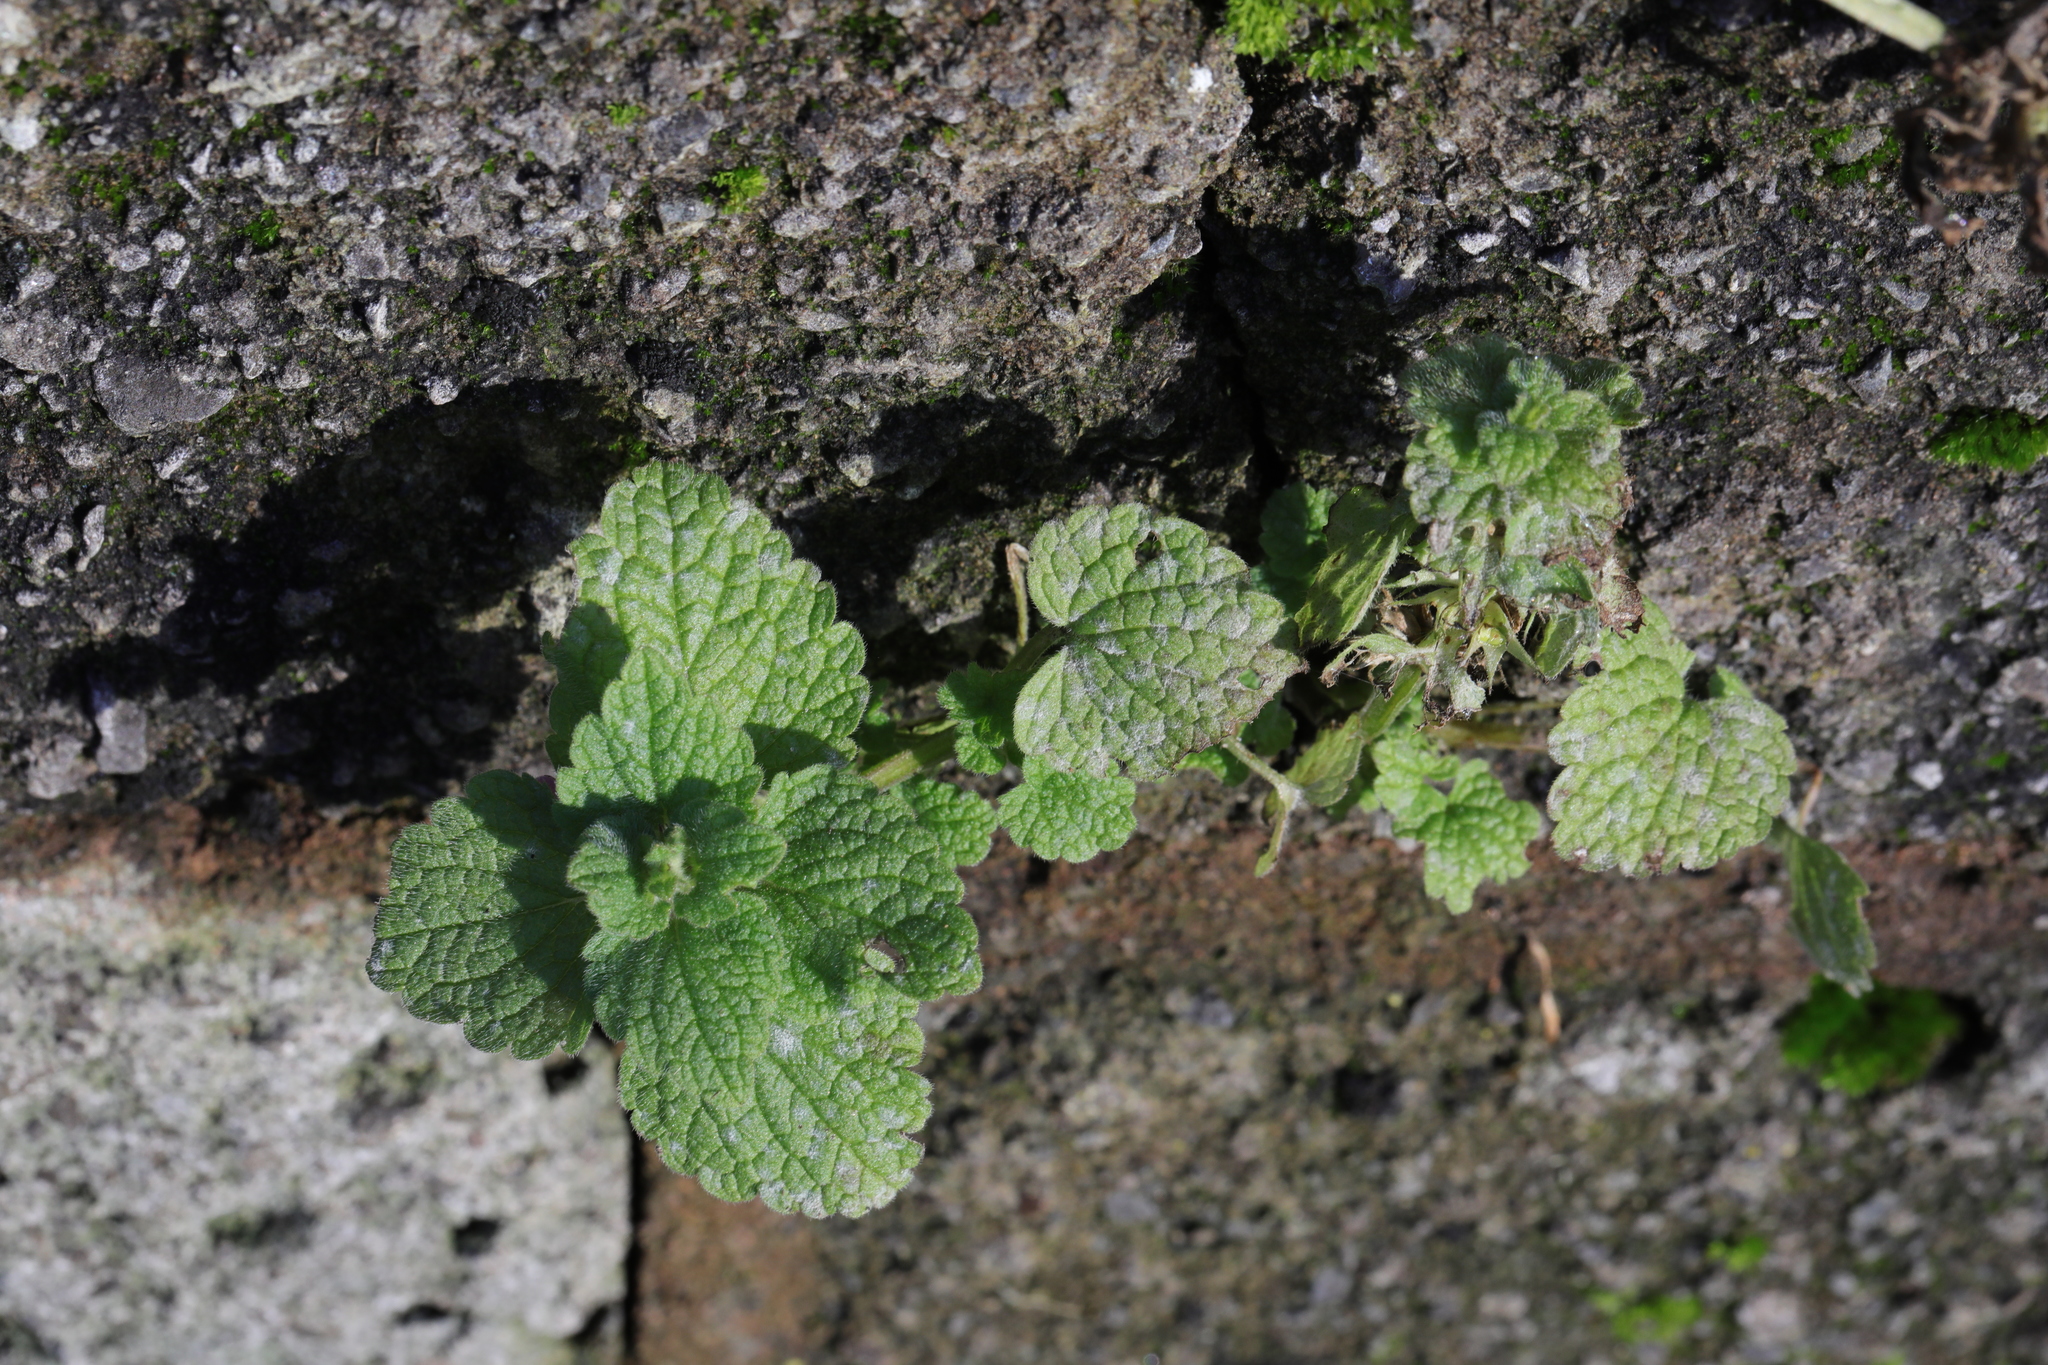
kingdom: Plantae
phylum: Tracheophyta
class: Magnoliopsida
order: Lamiales
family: Lamiaceae
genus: Lamium
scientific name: Lamium purpureum
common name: Red dead-nettle
